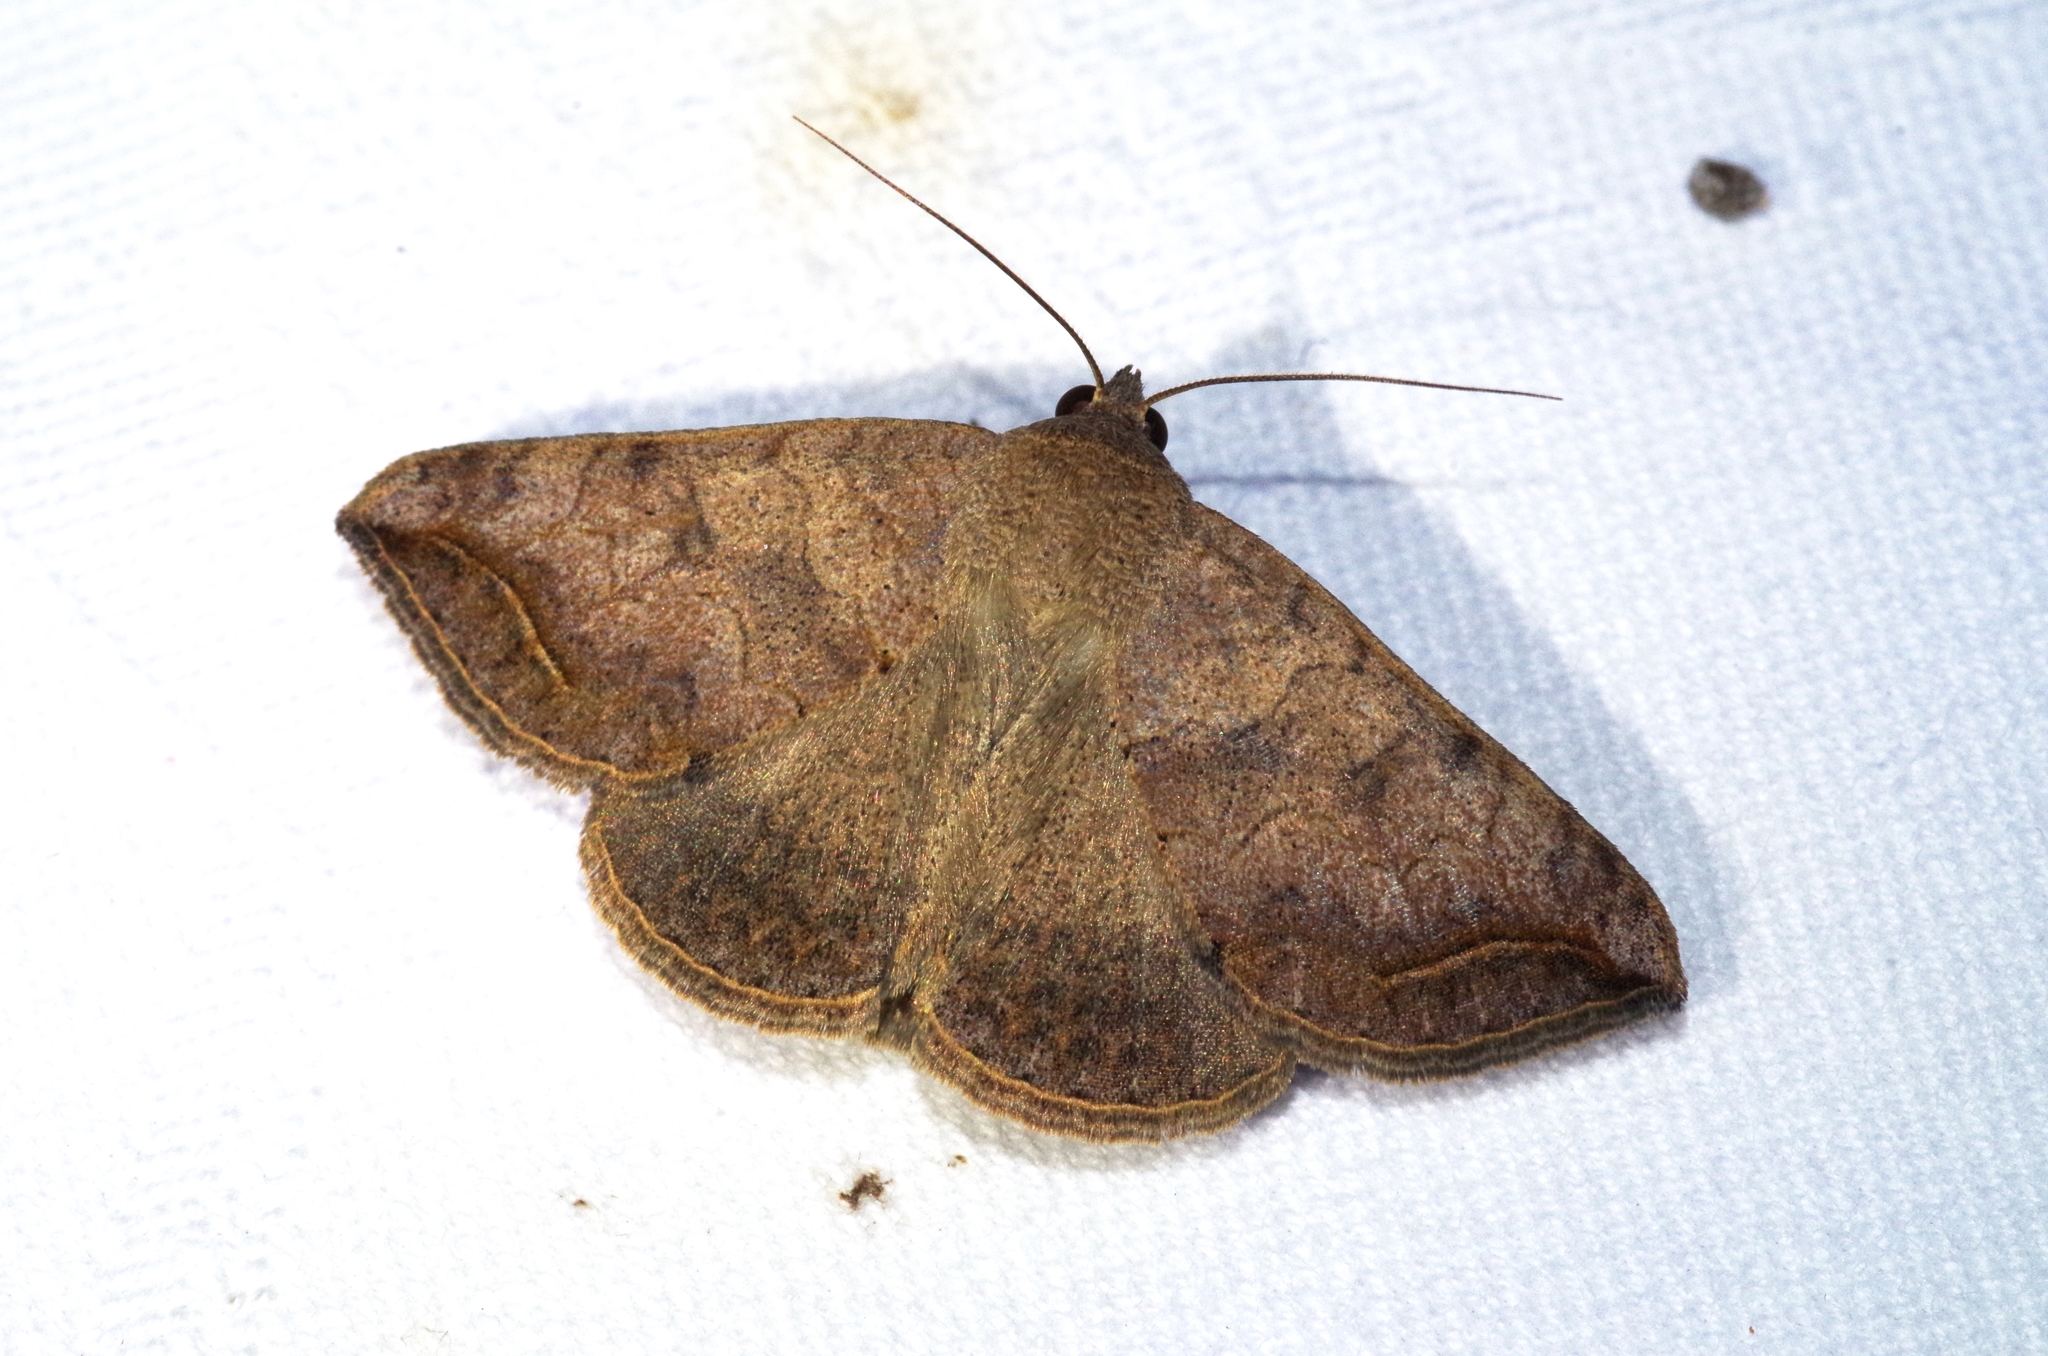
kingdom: Animalia
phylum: Arthropoda
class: Insecta
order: Lepidoptera
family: Erebidae
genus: Blasticorhinus
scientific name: Blasticorhinus rivulosa
